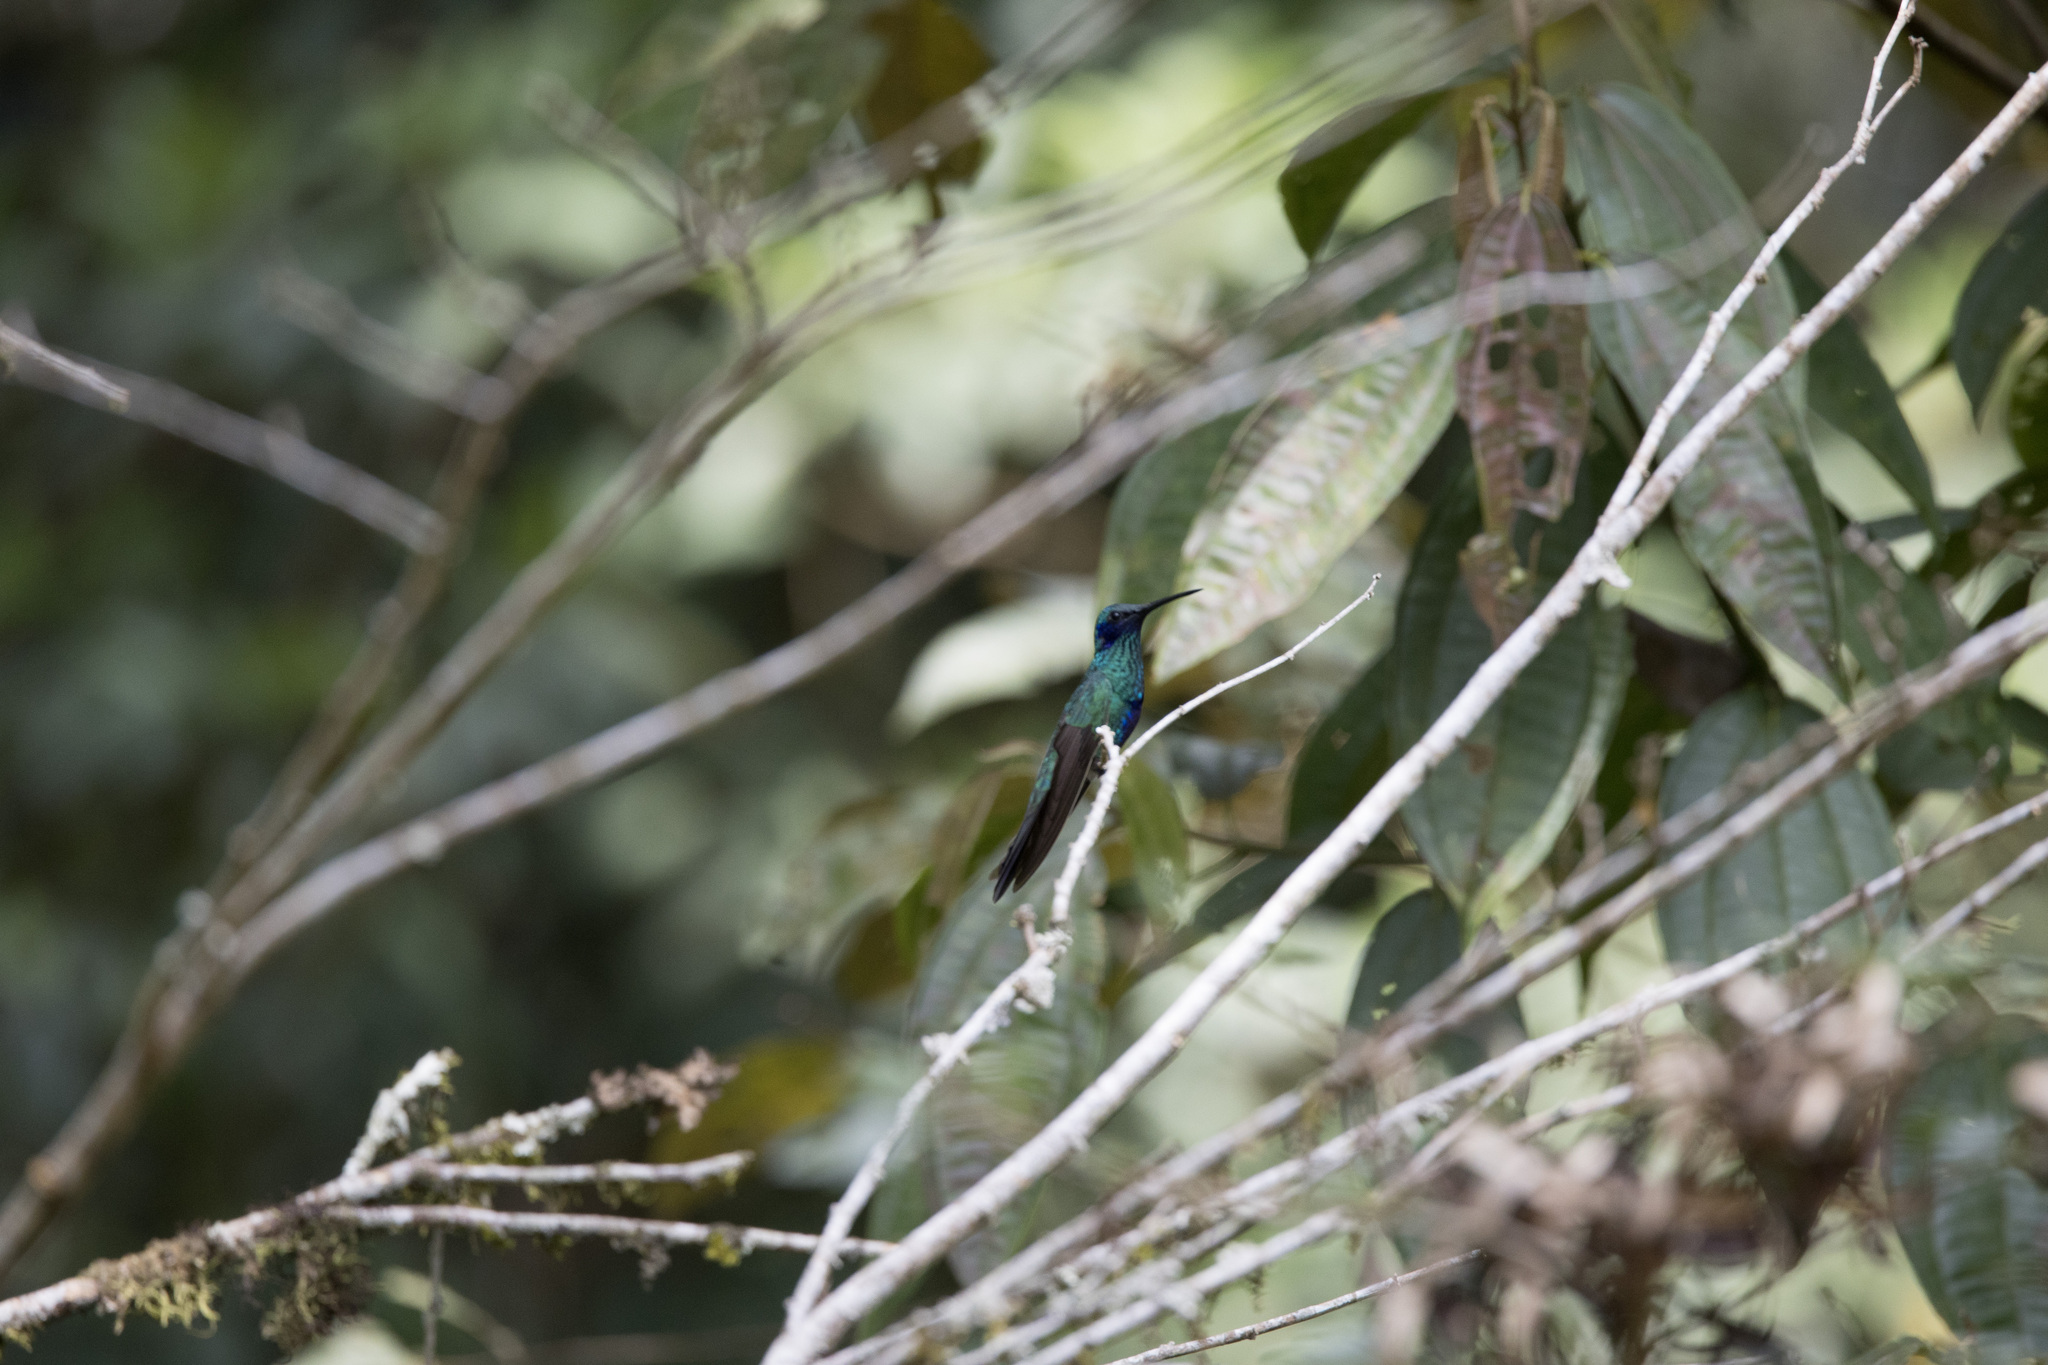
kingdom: Animalia
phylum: Chordata
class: Aves
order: Apodiformes
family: Trochilidae
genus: Colibri
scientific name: Colibri coruscans
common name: Sparkling violetear
